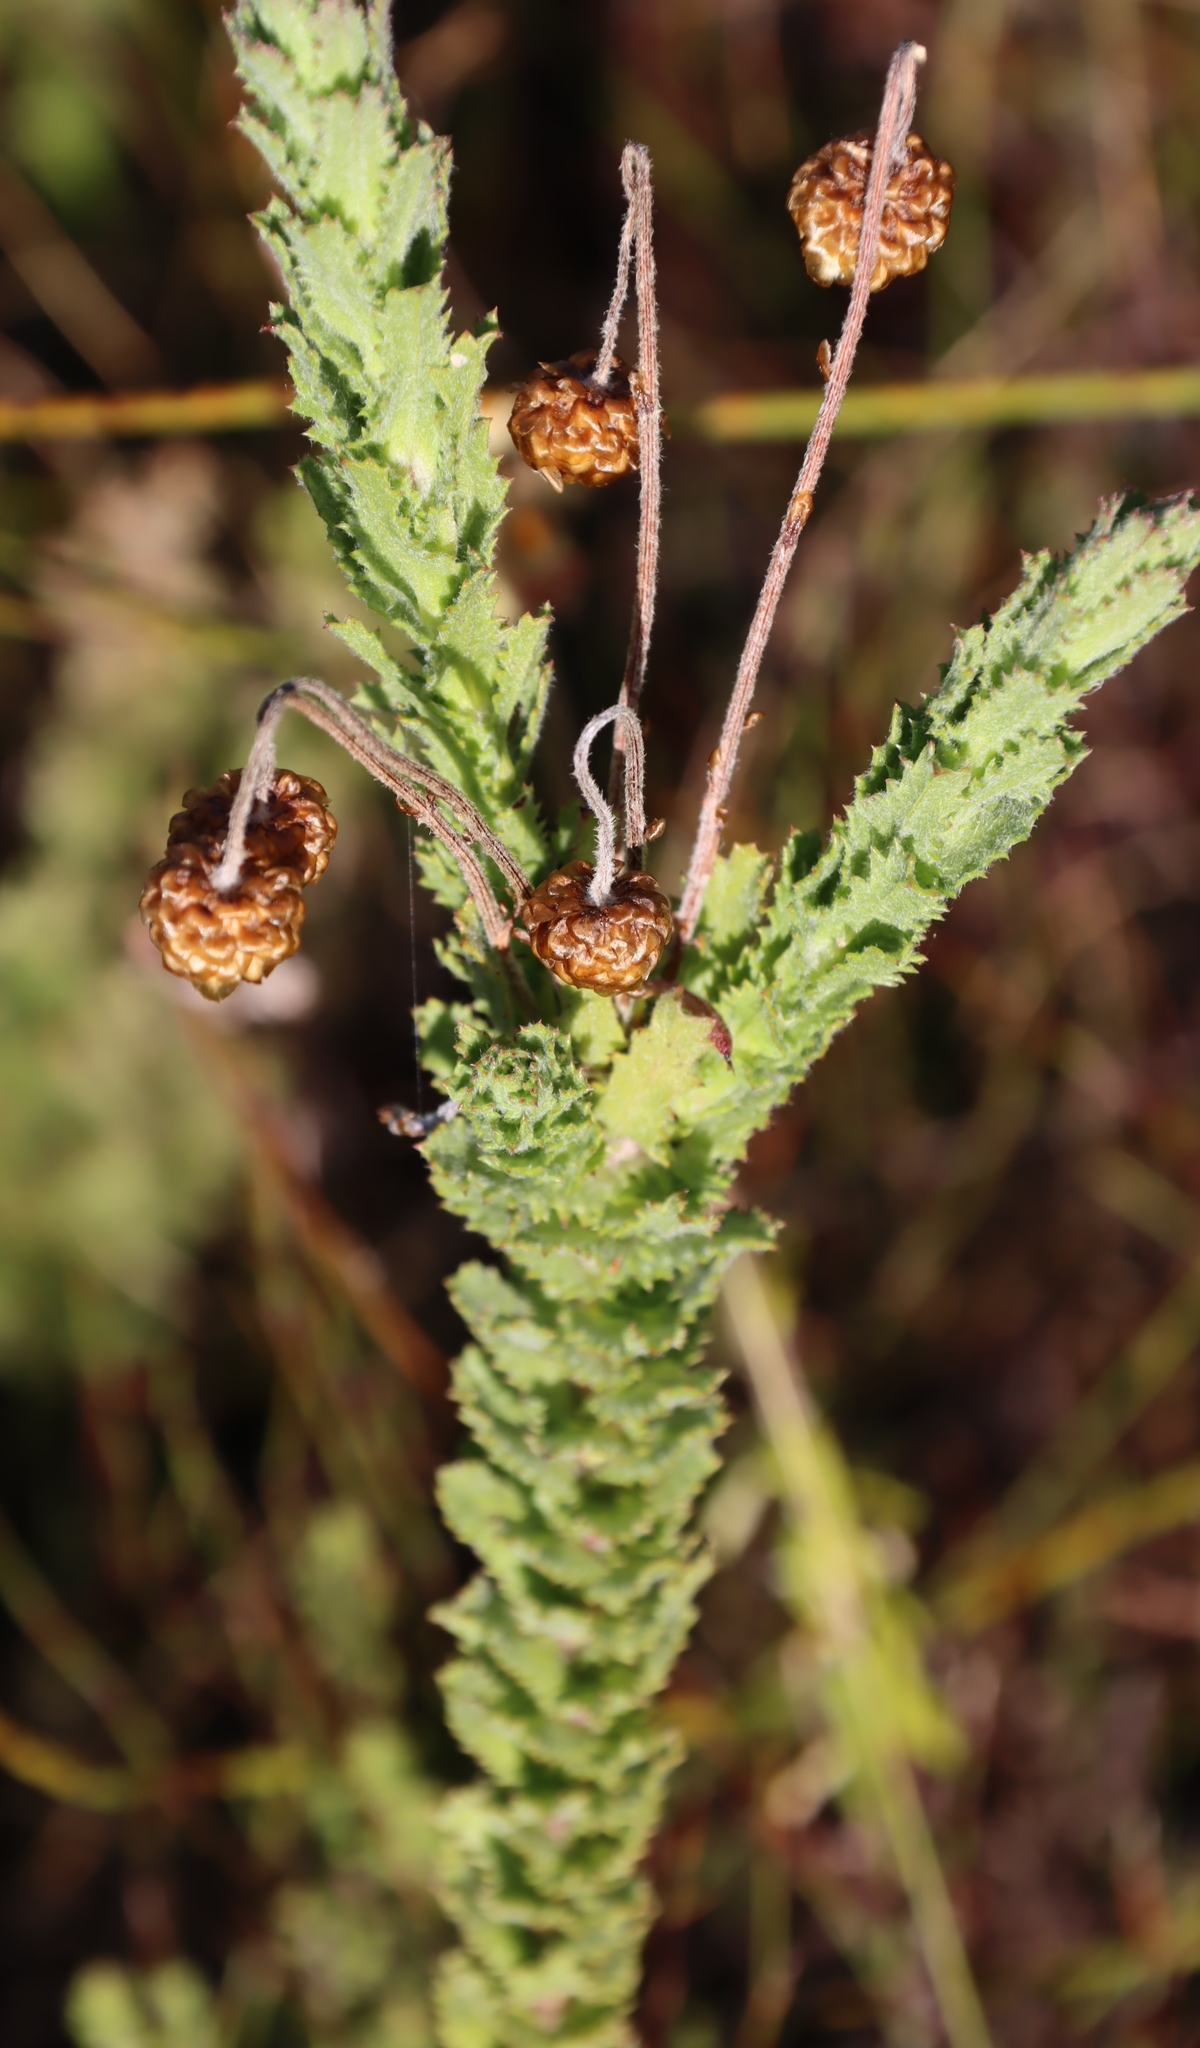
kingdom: Plantae
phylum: Tracheophyta
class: Magnoliopsida
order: Asterales
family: Asteraceae
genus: Ursinia
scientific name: Ursinia serrata
